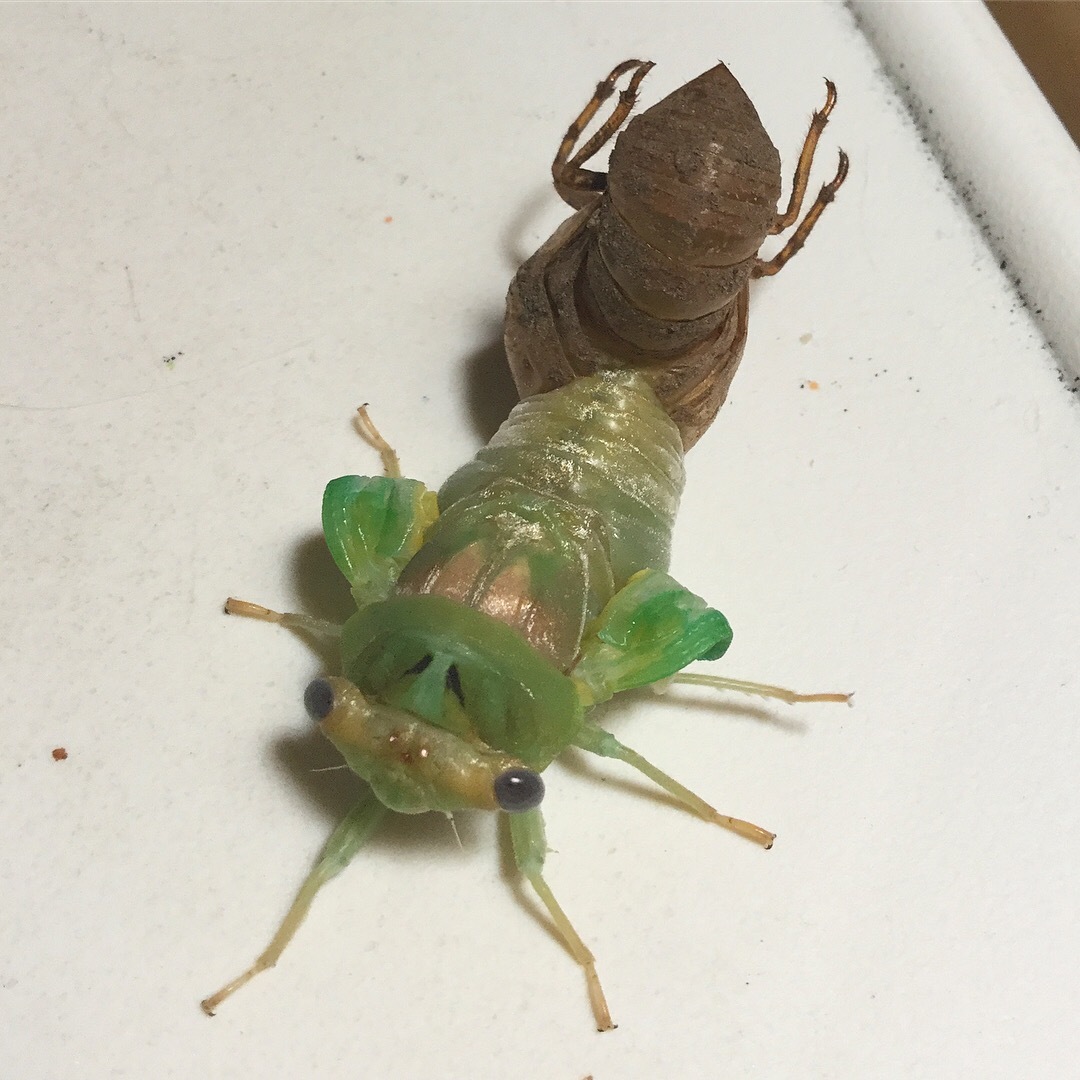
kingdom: Animalia
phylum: Arthropoda
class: Insecta
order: Hemiptera
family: Cicadidae
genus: Neotibicen
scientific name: Neotibicen canicularis
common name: God-day cicada
